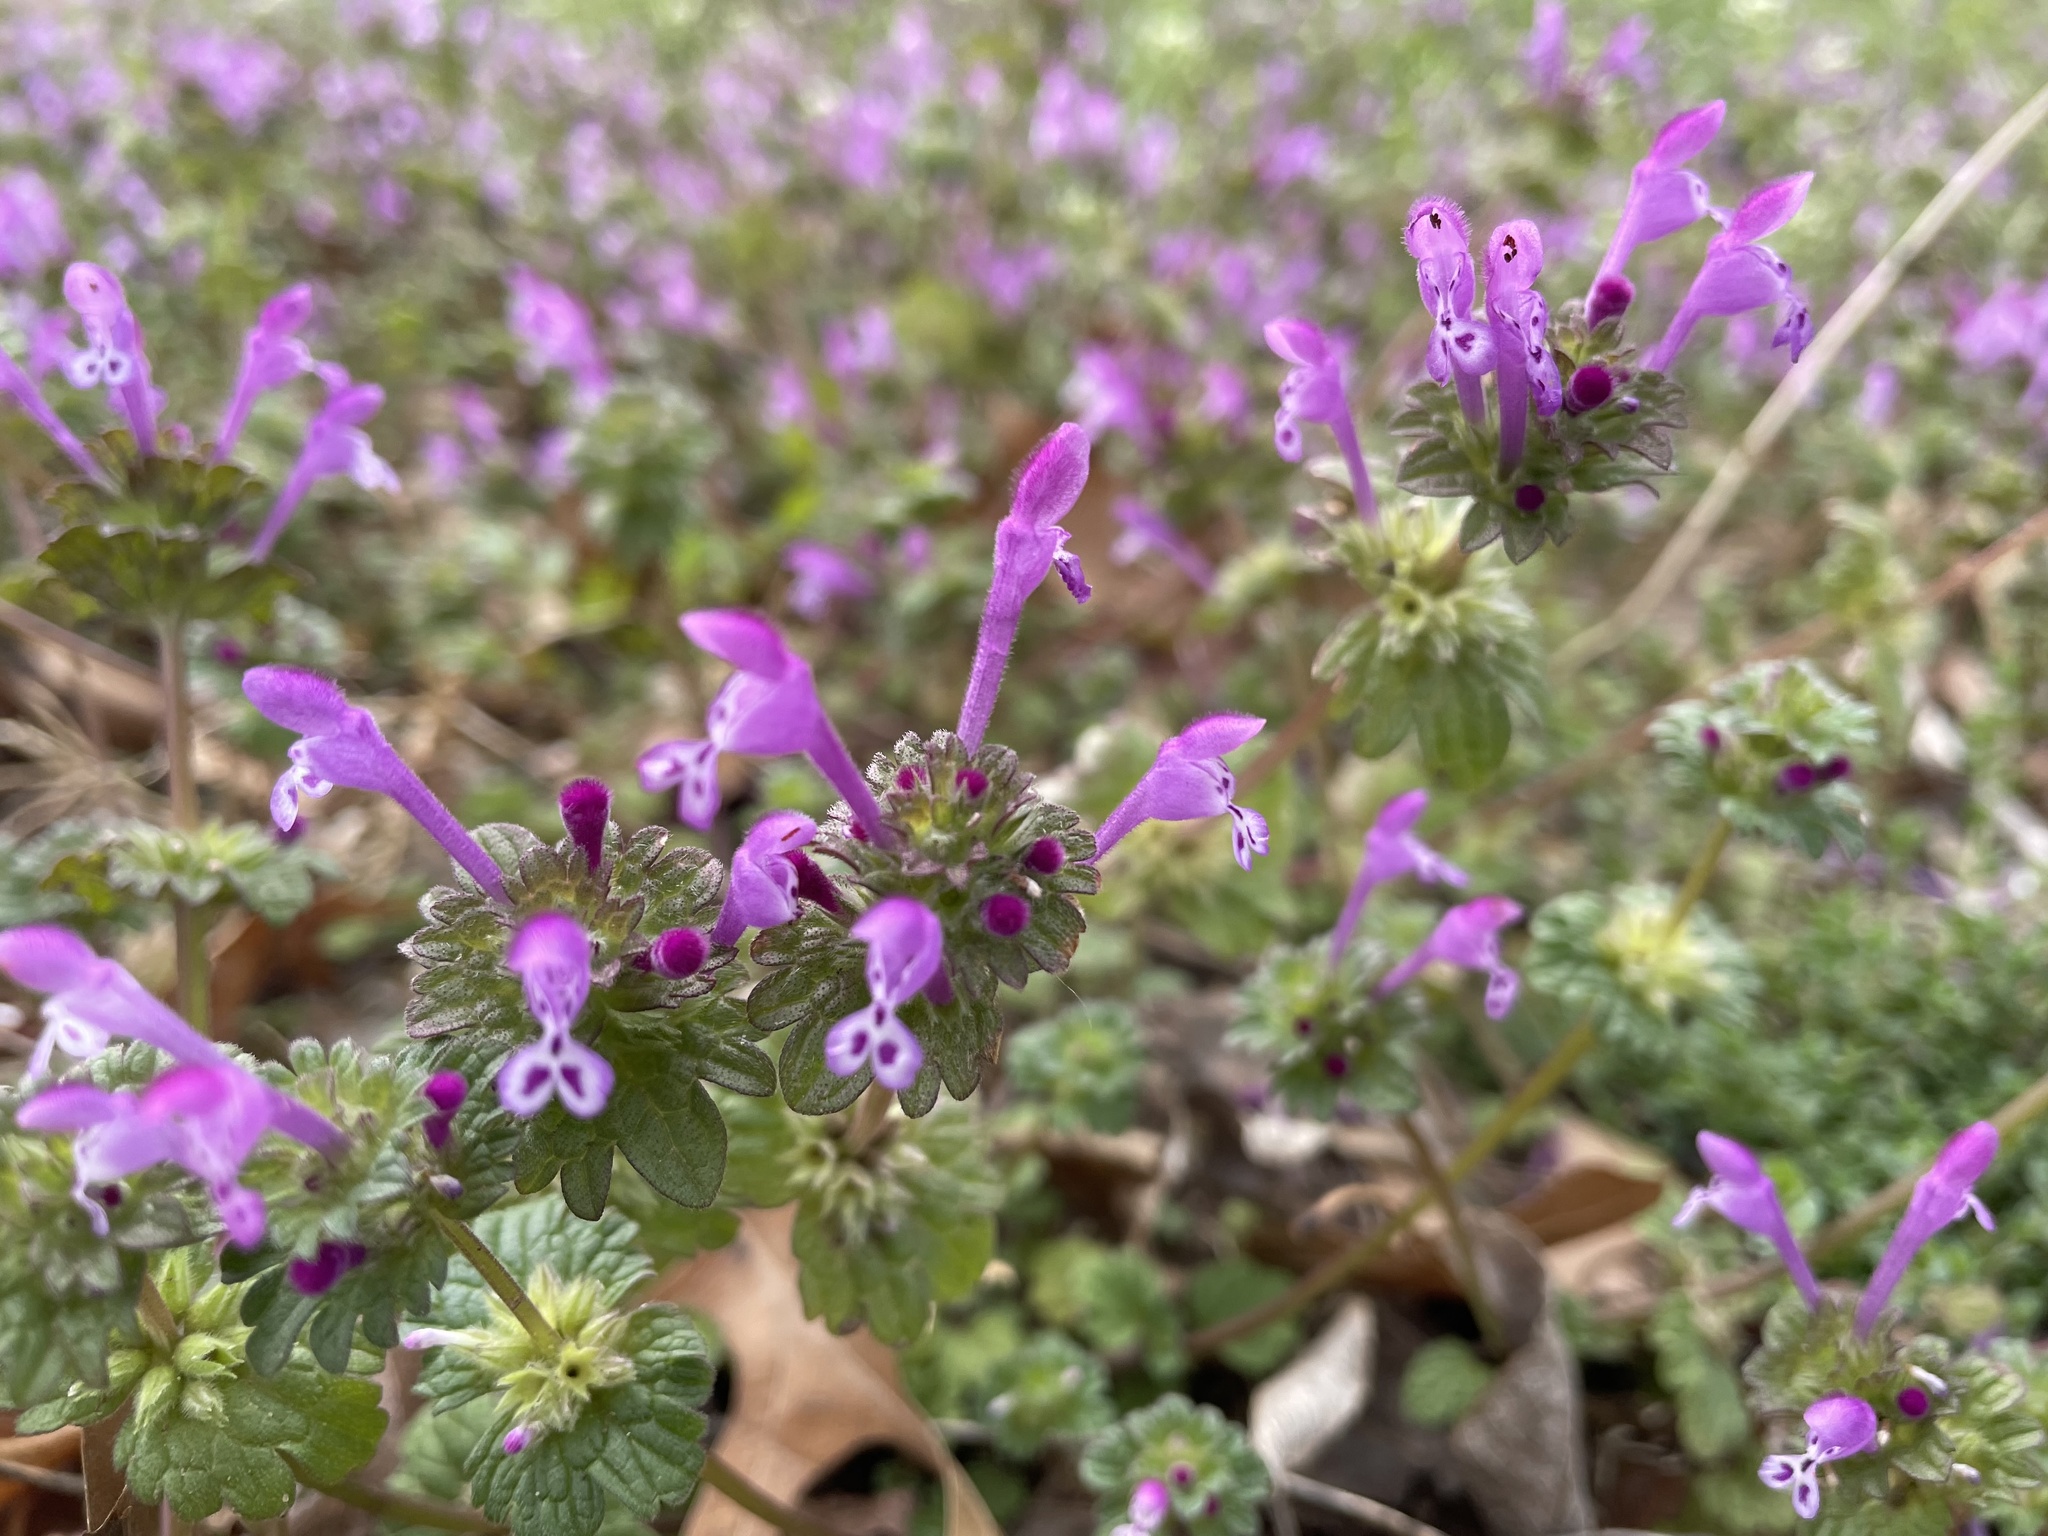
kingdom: Plantae
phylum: Tracheophyta
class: Magnoliopsida
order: Lamiales
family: Lamiaceae
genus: Lamium
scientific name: Lamium amplexicaule
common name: Henbit dead-nettle
